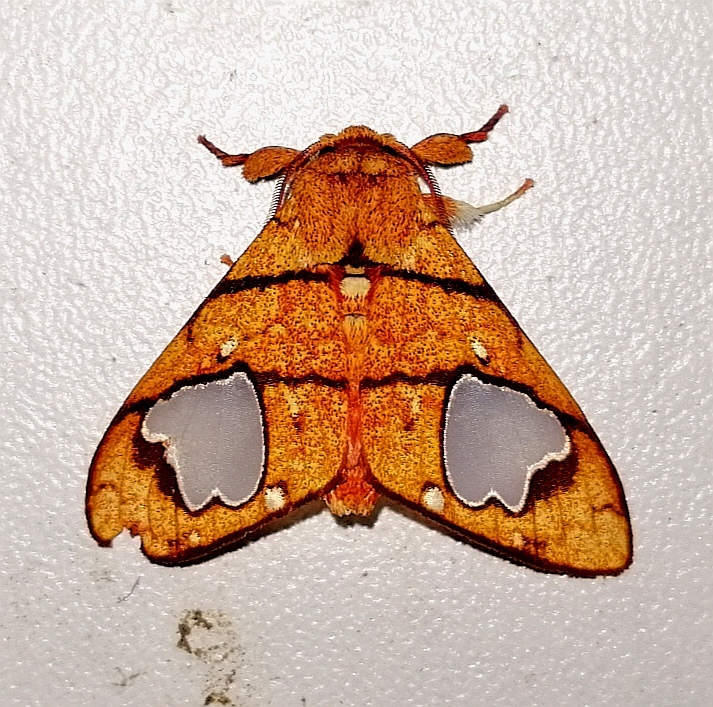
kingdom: Animalia
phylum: Arthropoda
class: Insecta
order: Lepidoptera
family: Erebidae
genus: Zatrephes
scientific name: Zatrephes trailii
